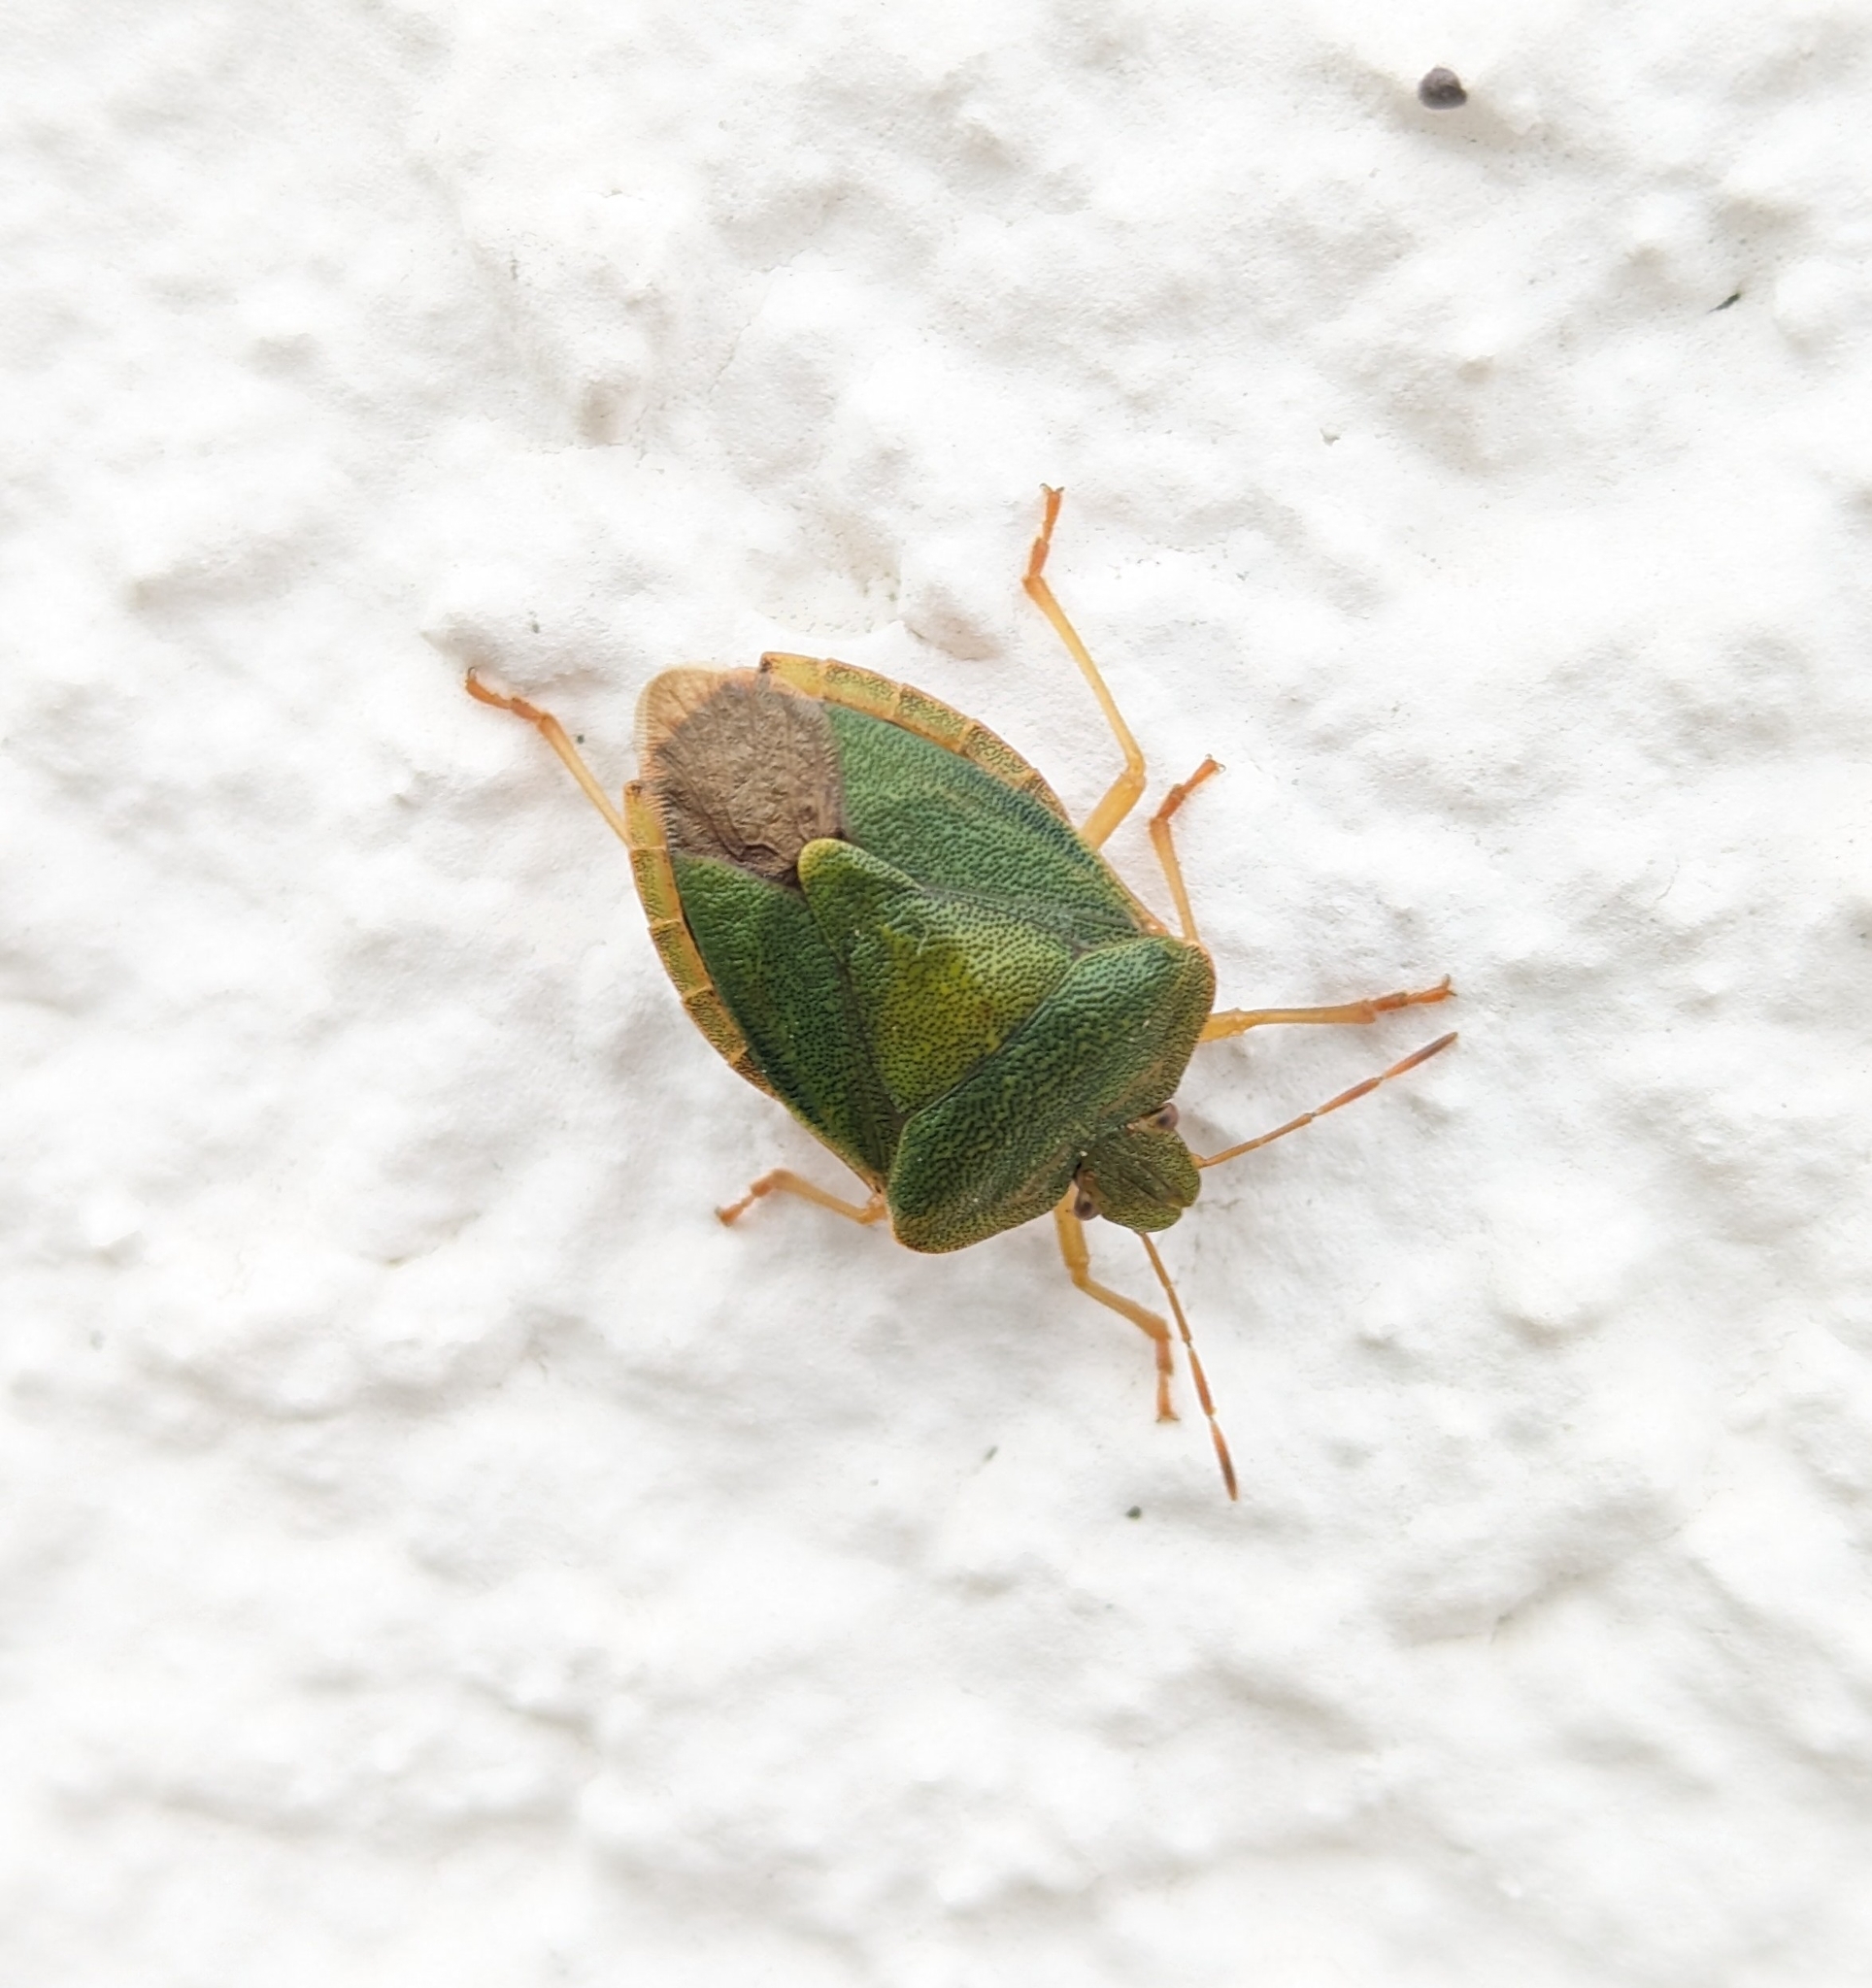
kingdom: Animalia
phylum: Arthropoda
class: Insecta
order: Hemiptera
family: Pentatomidae
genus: Palomena
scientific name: Palomena prasina
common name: Green shieldbug
